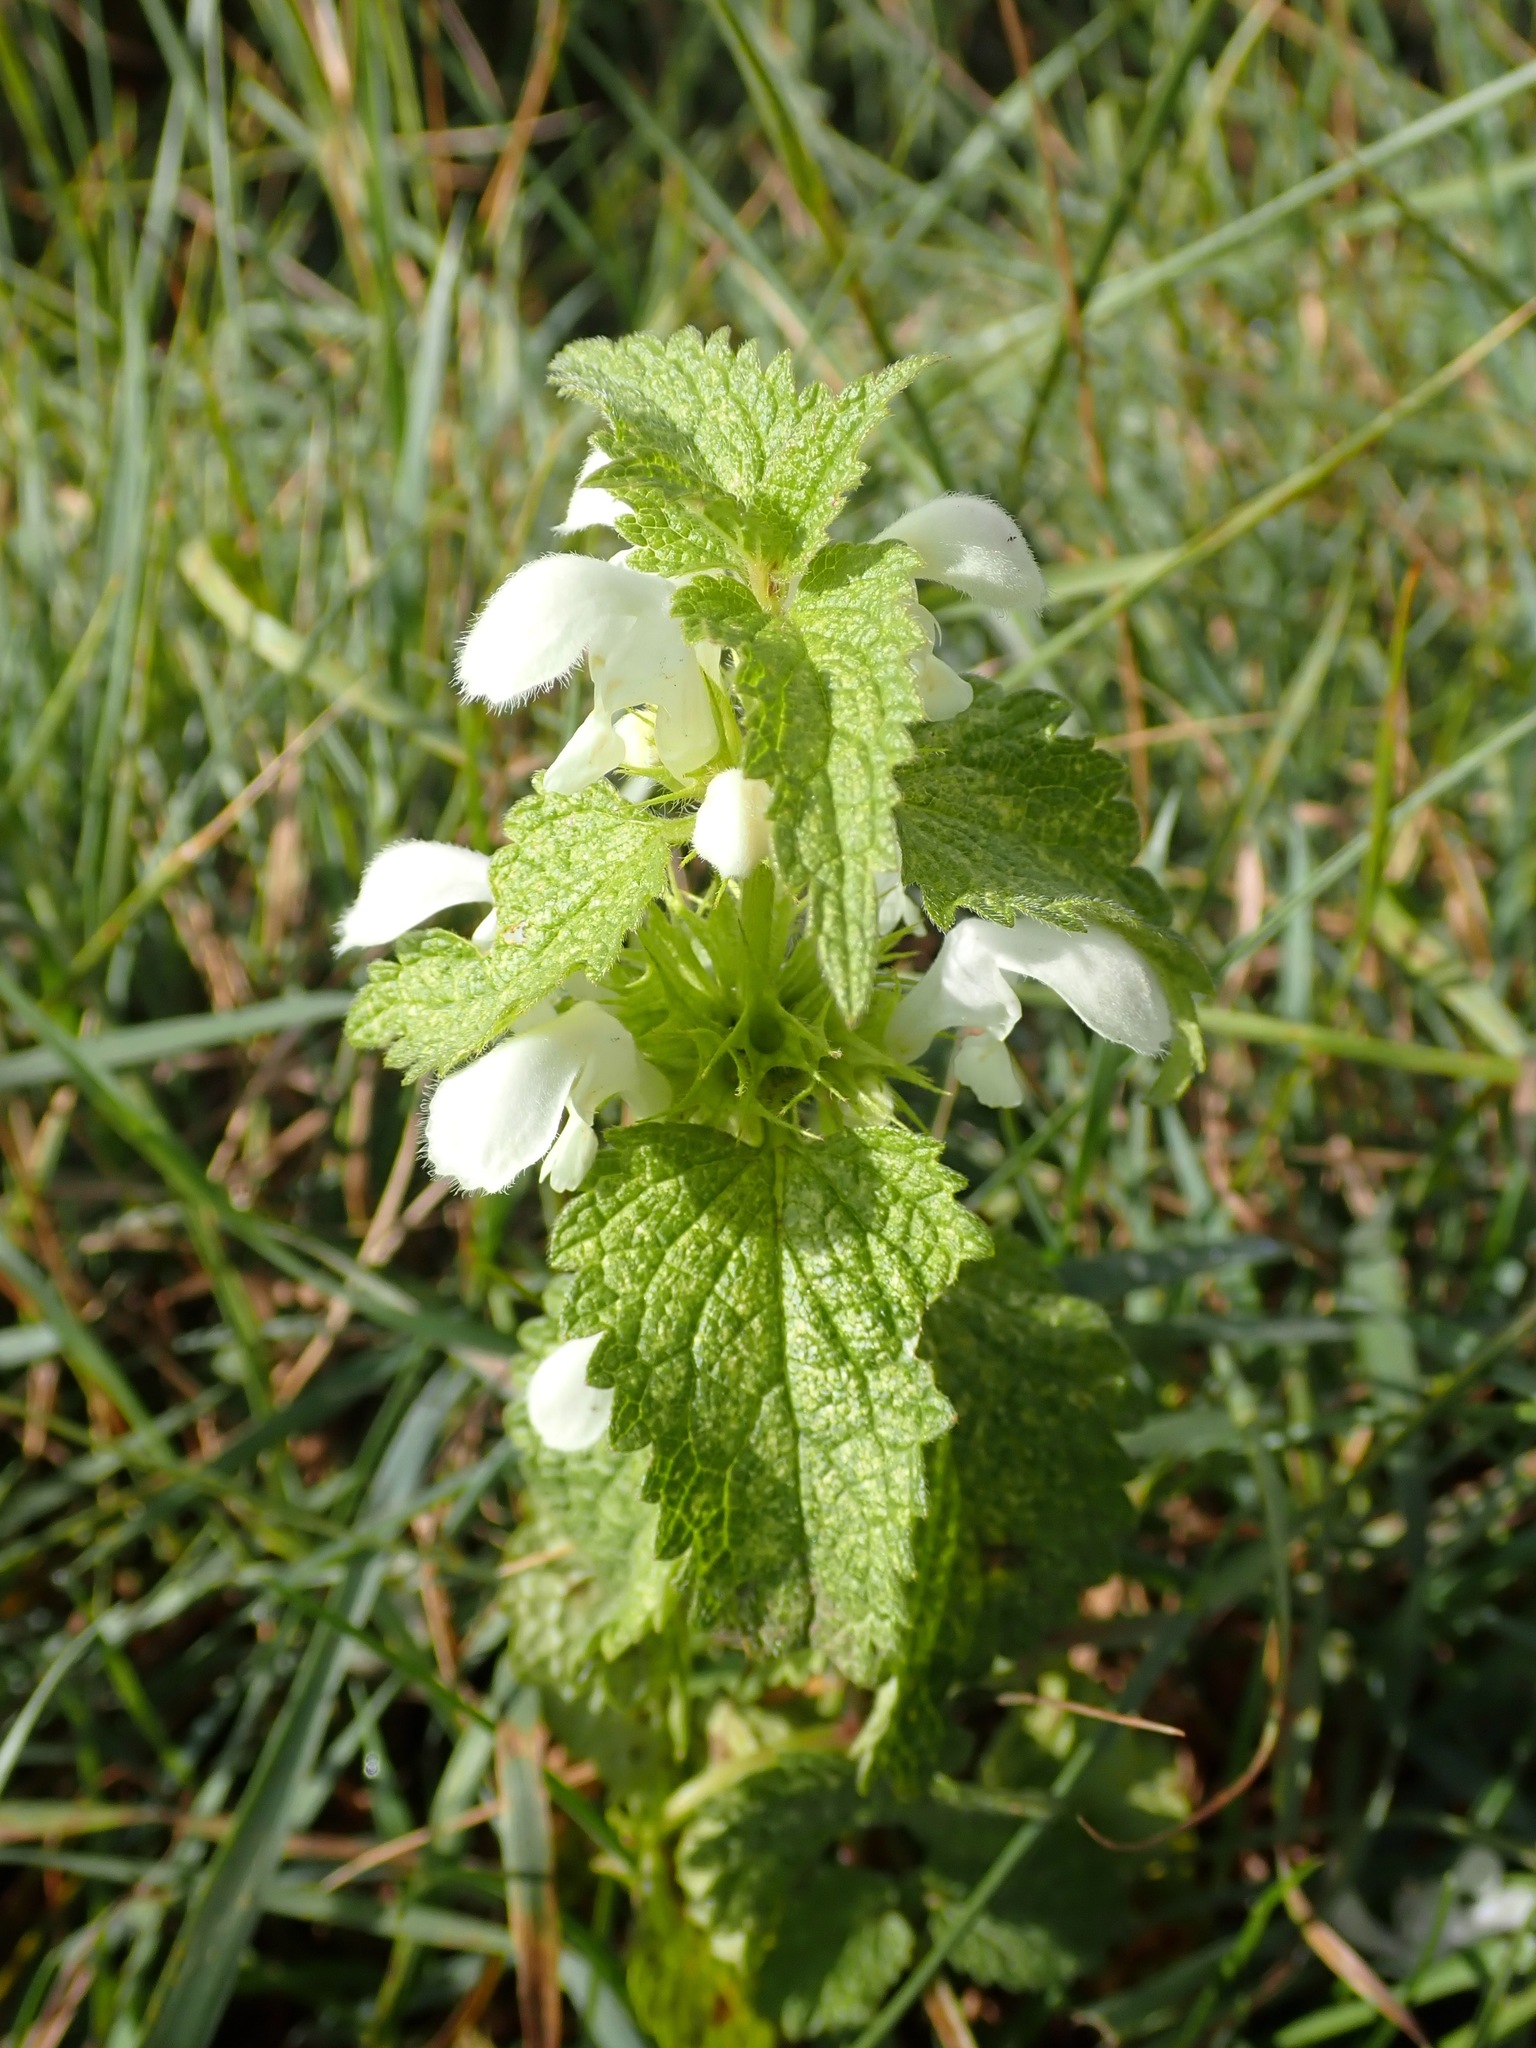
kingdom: Plantae
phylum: Tracheophyta
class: Magnoliopsida
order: Lamiales
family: Lamiaceae
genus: Lamium
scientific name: Lamium album
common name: White dead-nettle
